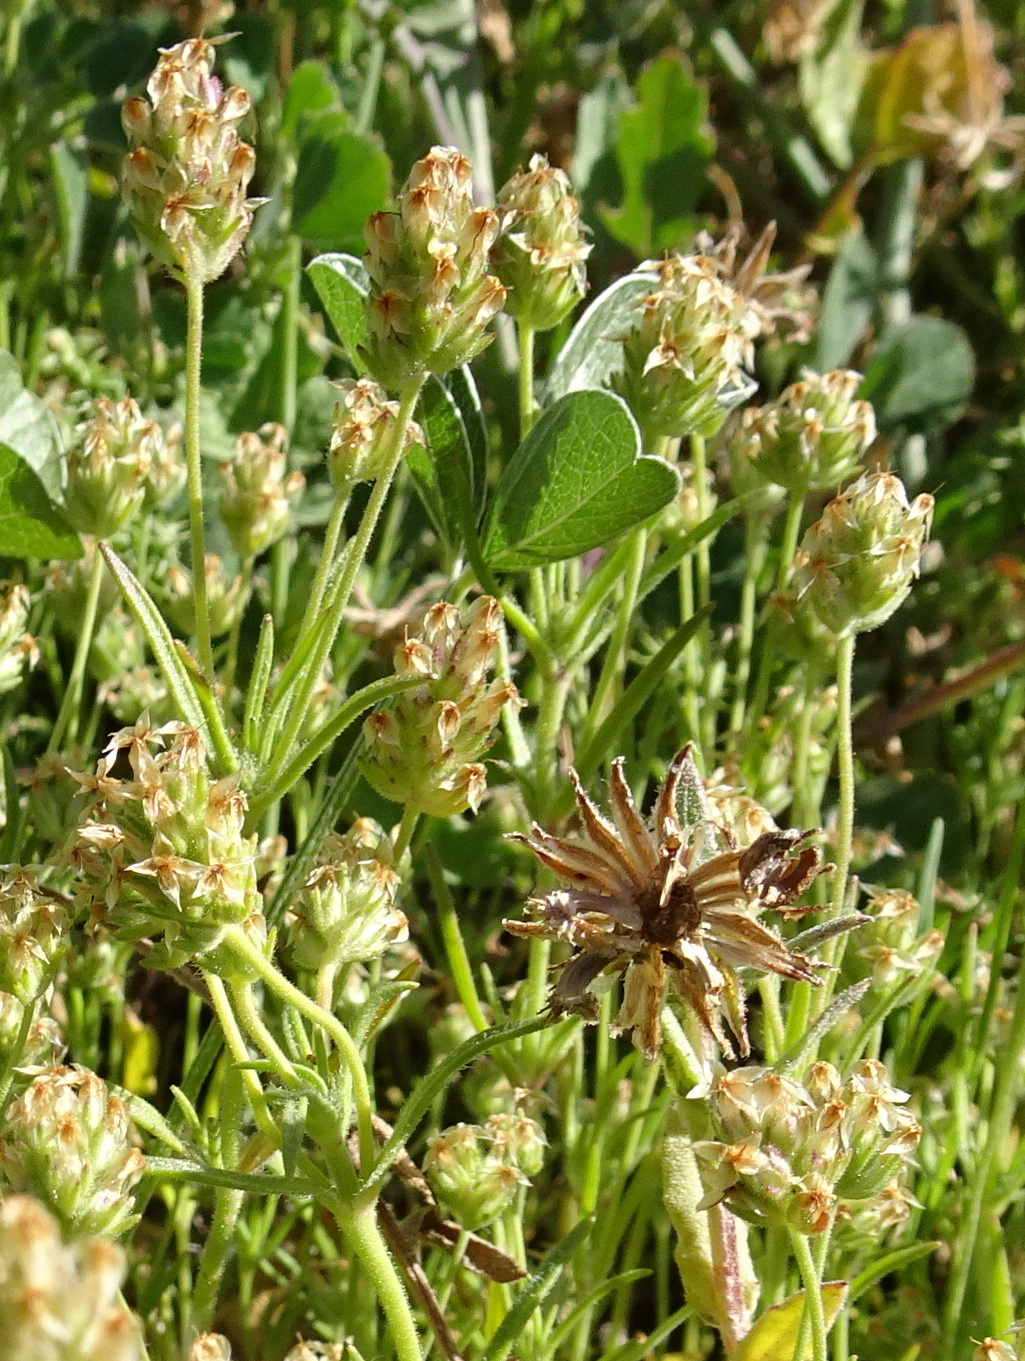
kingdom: Plantae
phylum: Tracheophyta
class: Magnoliopsida
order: Lamiales
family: Plantaginaceae
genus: Plantago
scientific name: Plantago afra
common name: Glandular plantain
